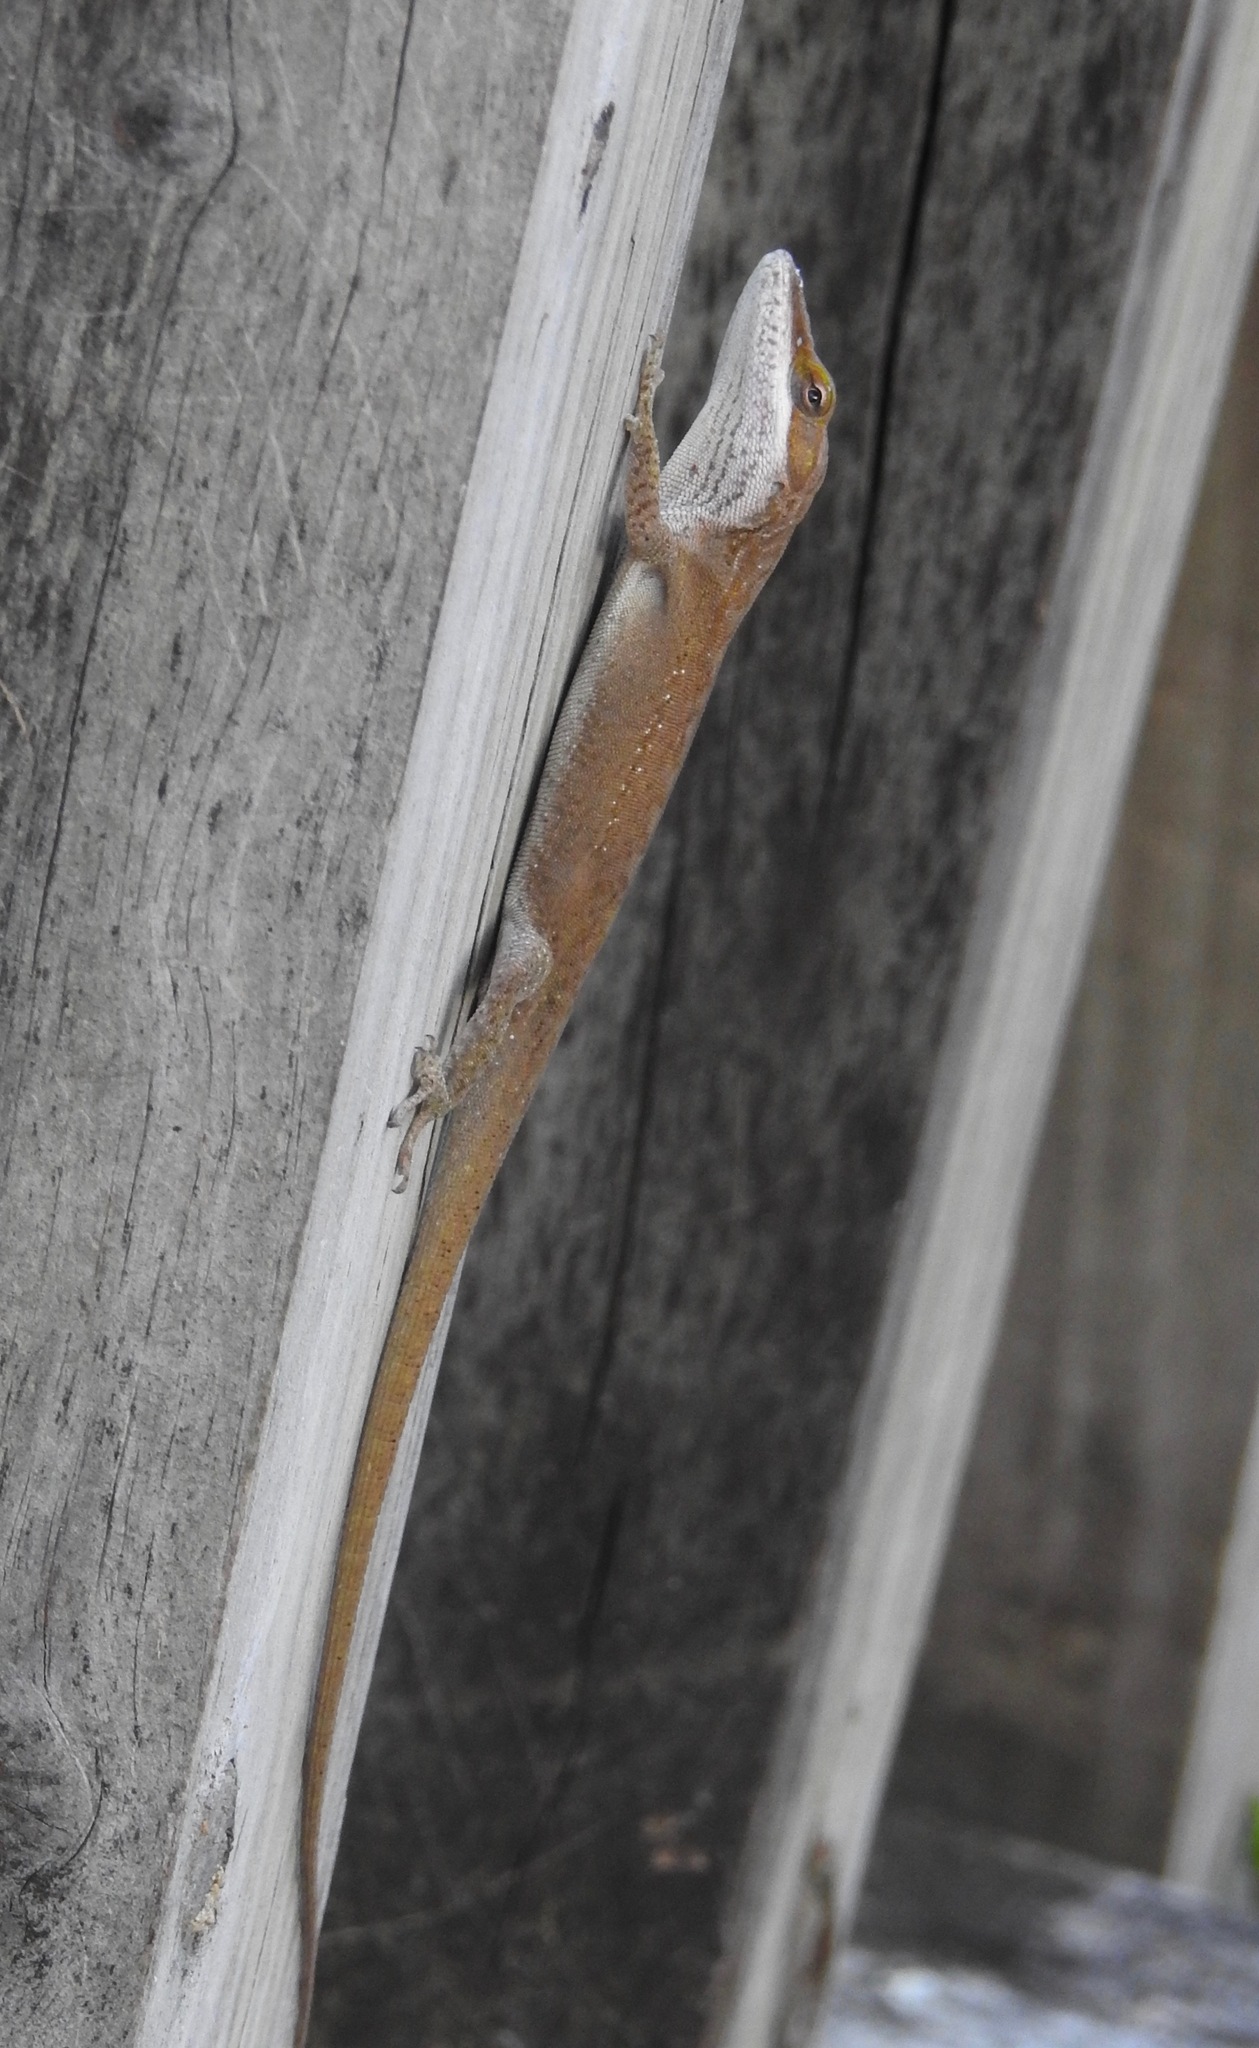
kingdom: Animalia
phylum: Chordata
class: Squamata
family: Dactyloidae
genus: Anolis
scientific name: Anolis carolinensis
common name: Green anole
